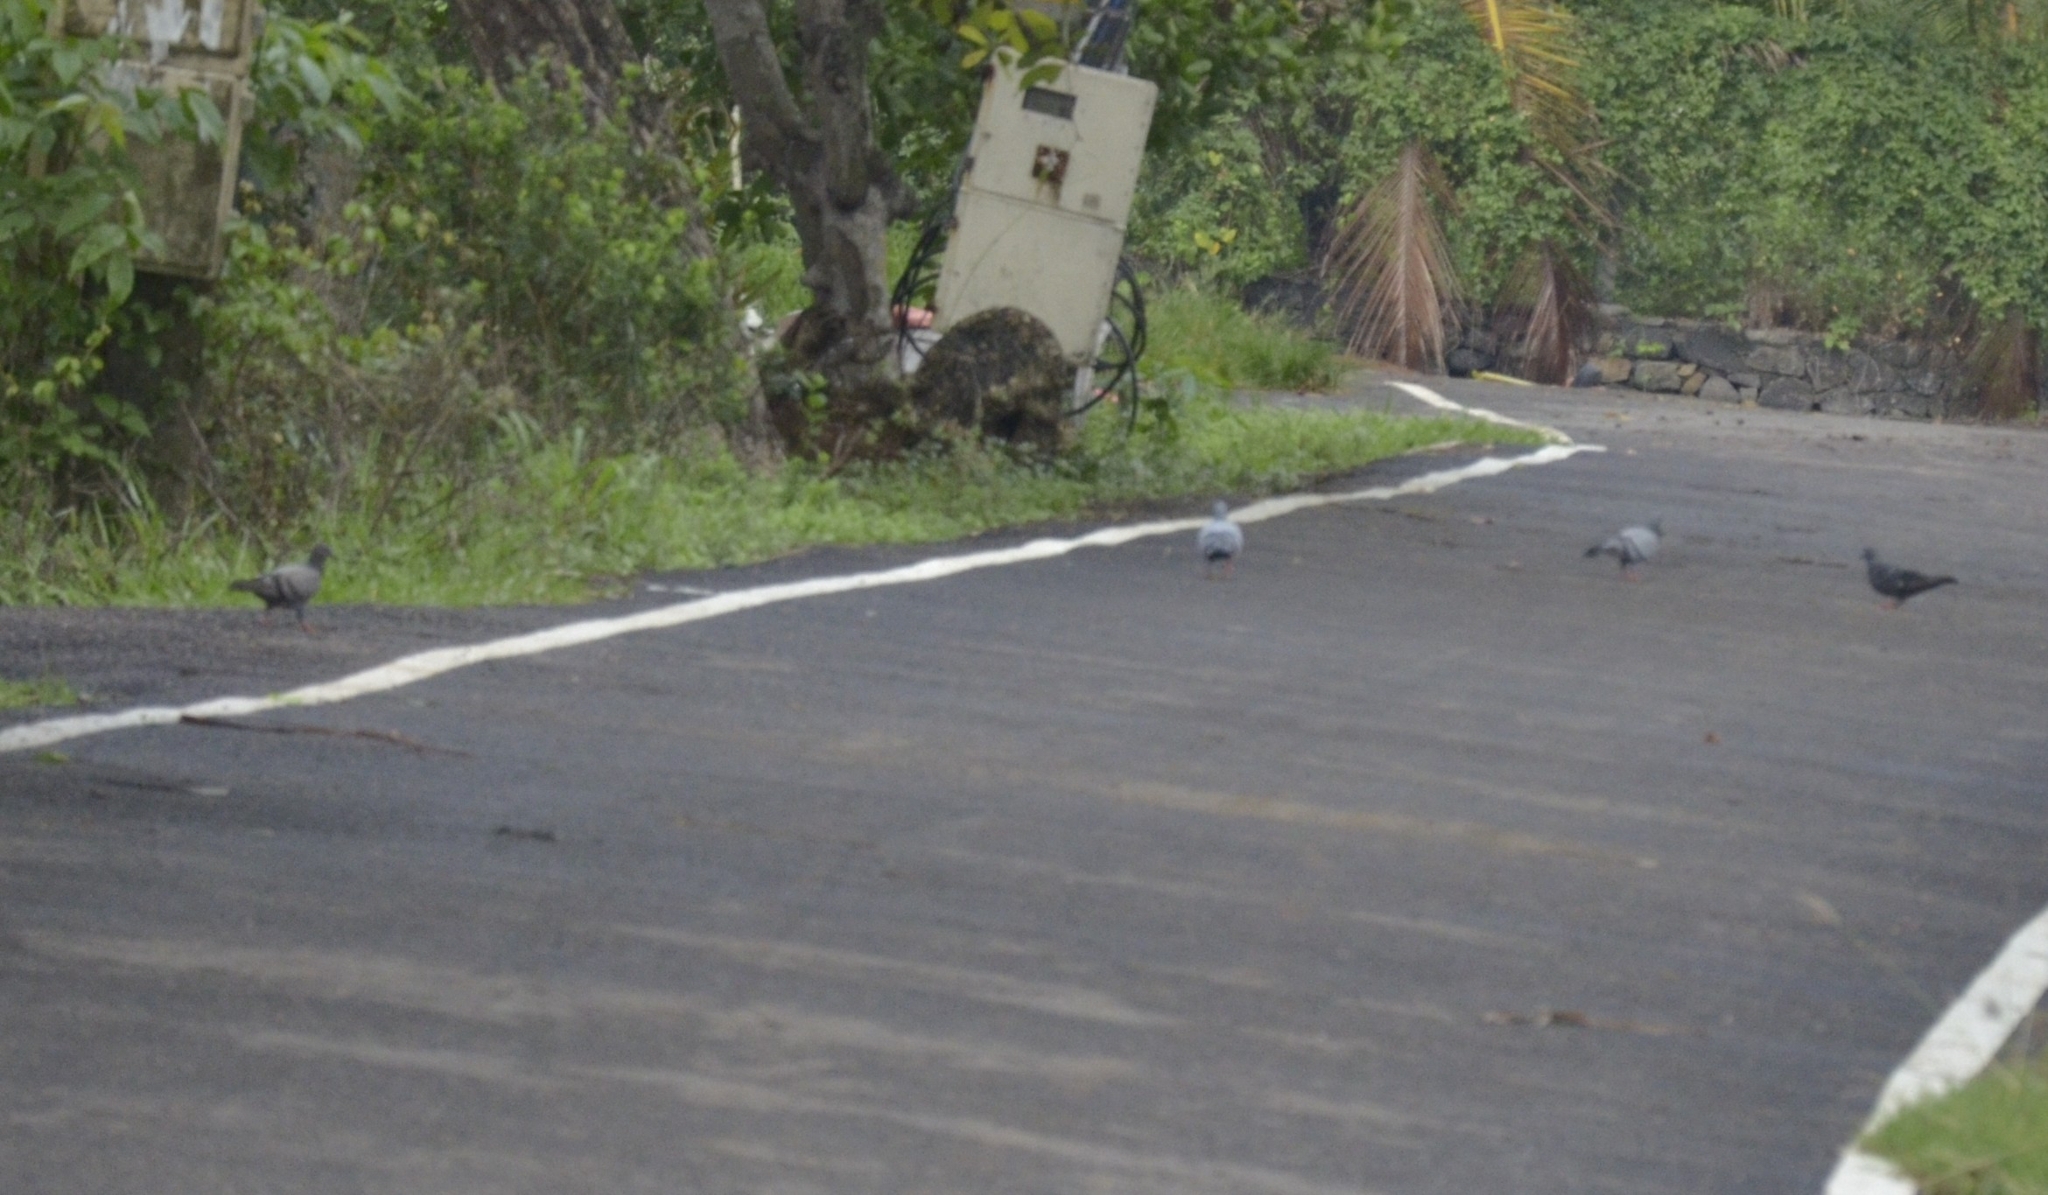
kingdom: Animalia
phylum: Chordata
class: Aves
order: Columbiformes
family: Columbidae
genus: Columba
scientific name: Columba livia
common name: Rock pigeon
